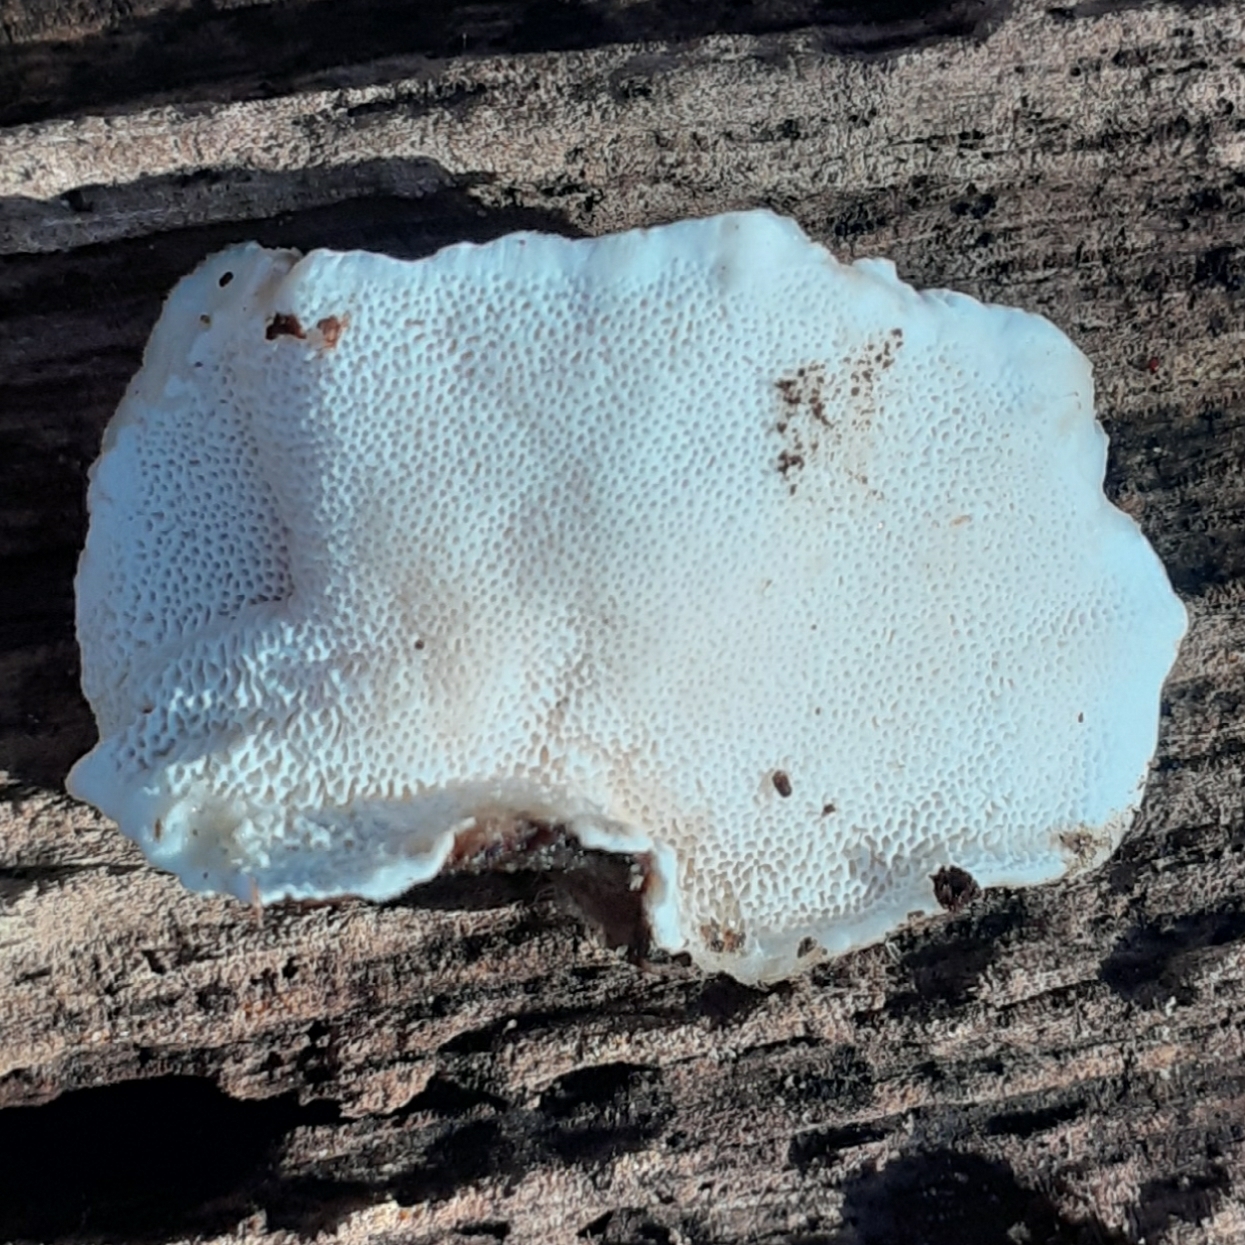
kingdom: Fungi
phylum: Basidiomycota
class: Agaricomycetes
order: Polyporales
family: Polyporaceae
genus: Trametes
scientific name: Trametes versicolor
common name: Turkeytail
